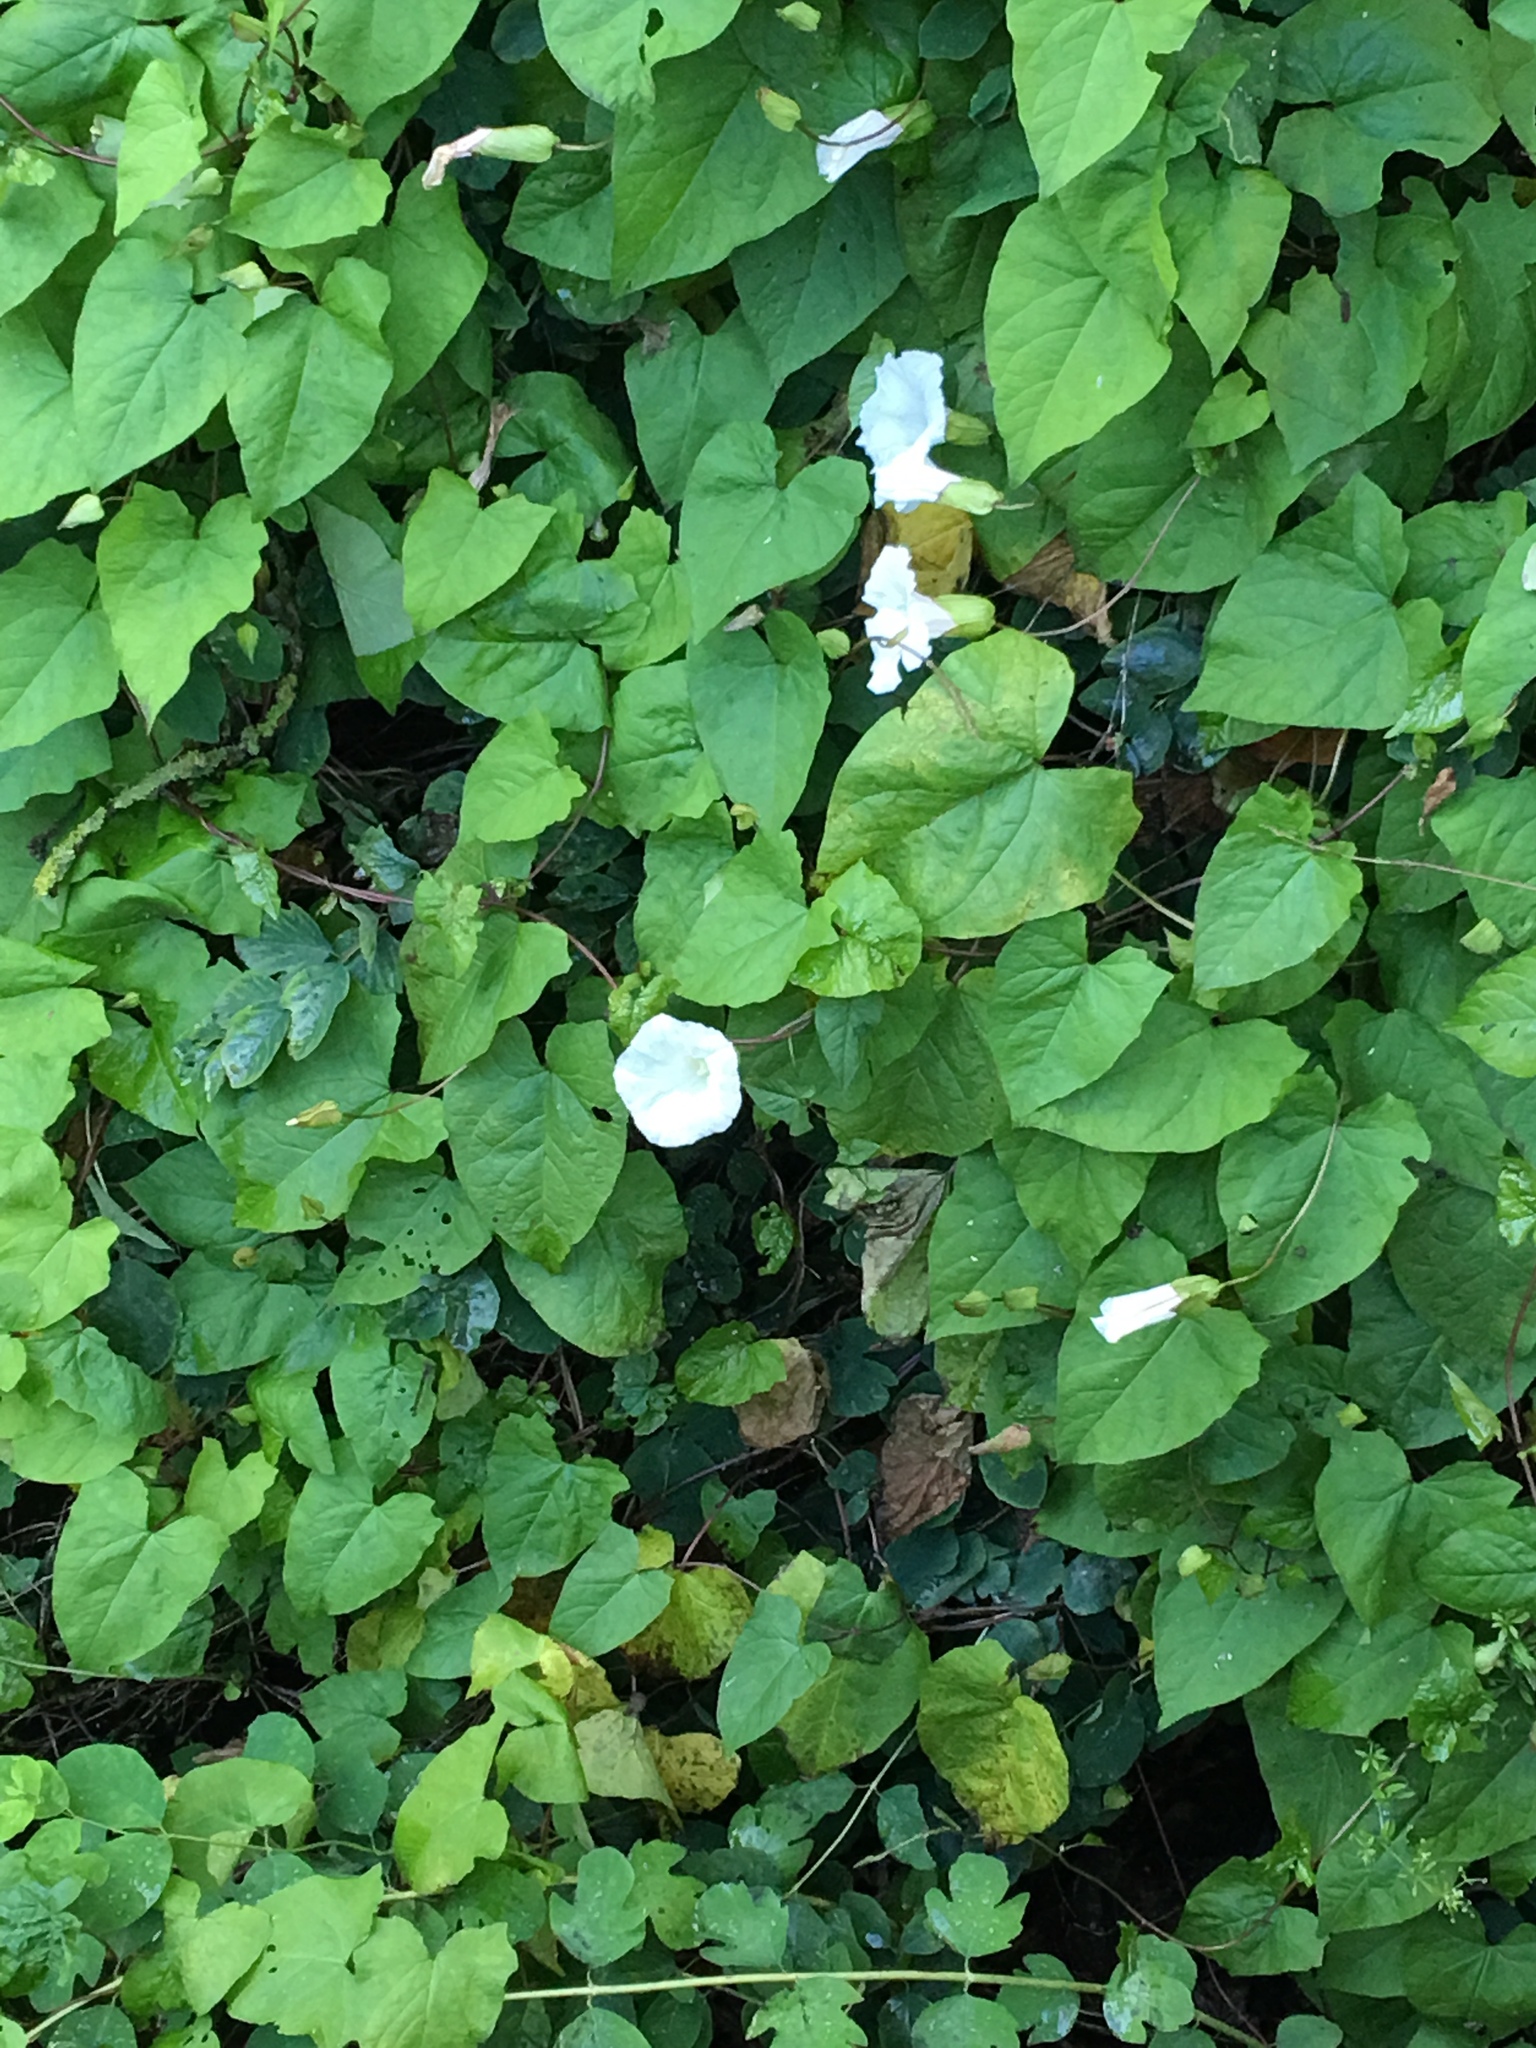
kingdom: Plantae
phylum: Tracheophyta
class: Magnoliopsida
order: Solanales
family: Convolvulaceae
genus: Calystegia
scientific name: Calystegia silvatica
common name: Large bindweed
